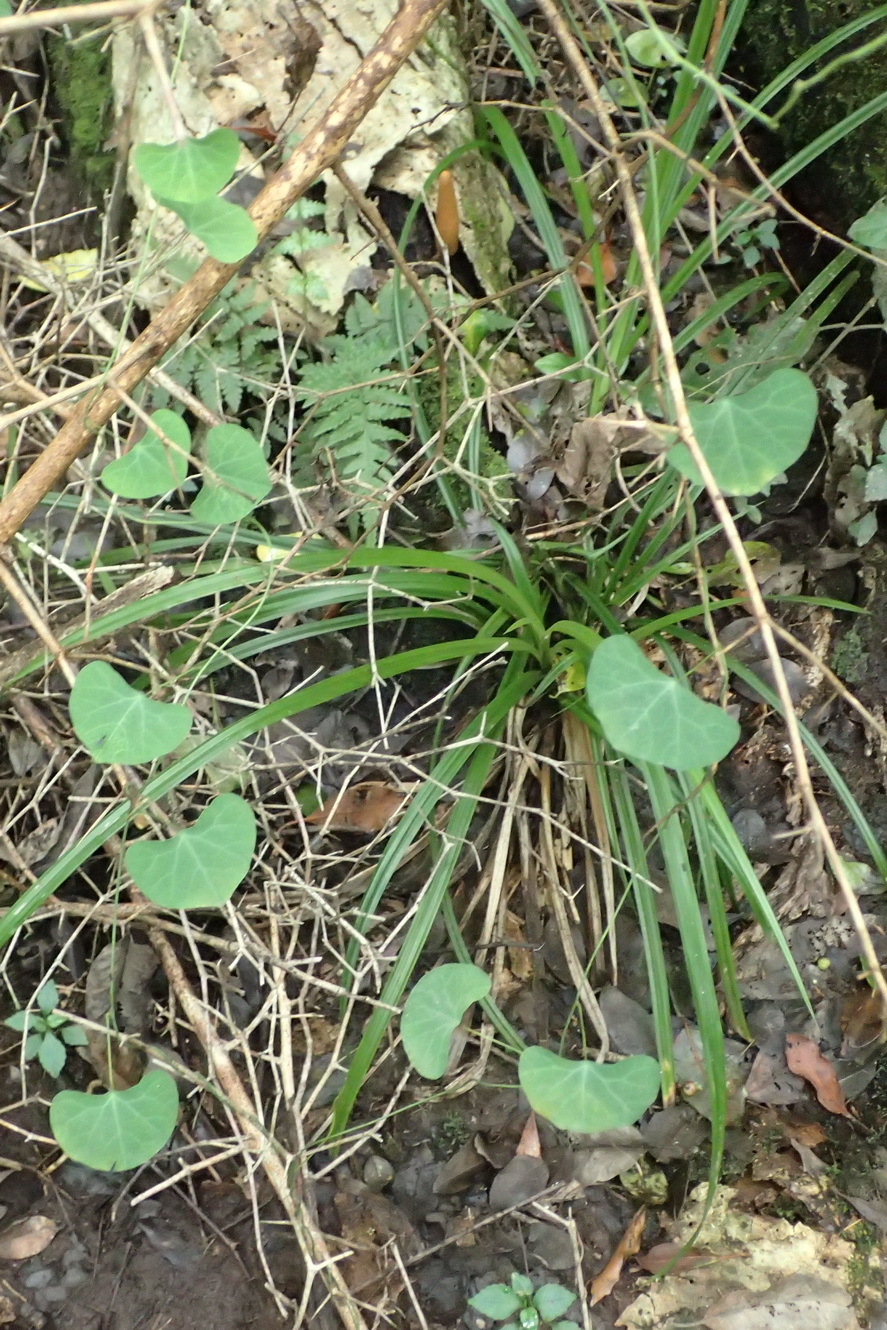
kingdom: Plantae
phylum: Tracheophyta
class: Magnoliopsida
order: Ranunculales
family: Menispermaceae
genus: Cissampelos
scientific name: Cissampelos torulosa
